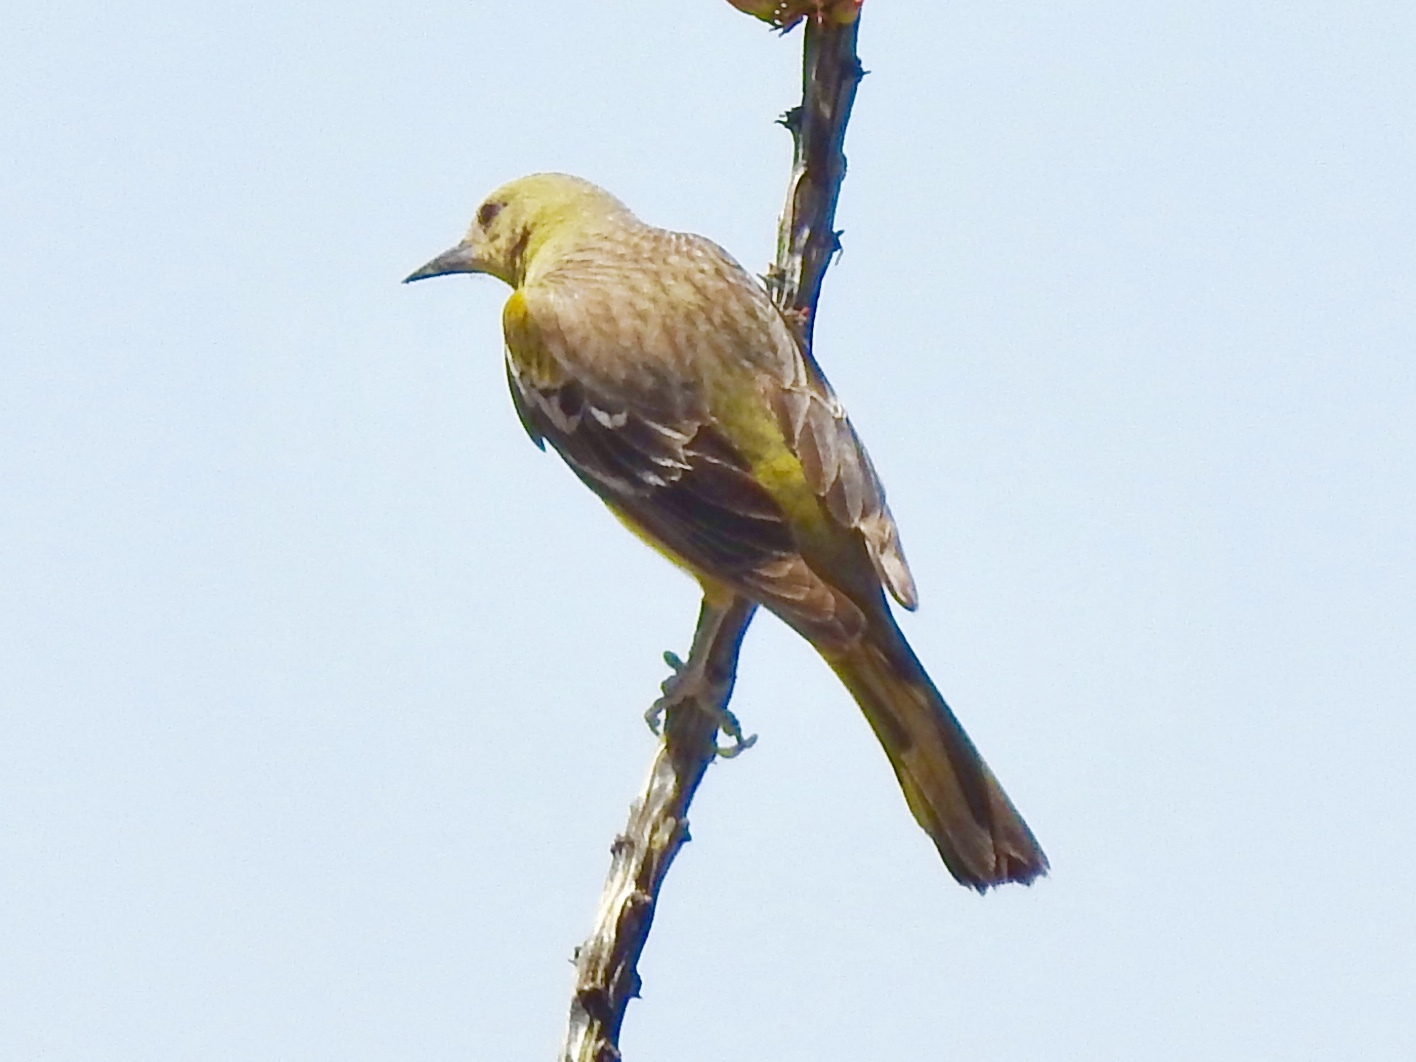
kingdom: Animalia
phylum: Chordata
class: Aves
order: Passeriformes
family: Icteridae
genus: Icterus
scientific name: Icterus parisorum
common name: Scott's oriole
